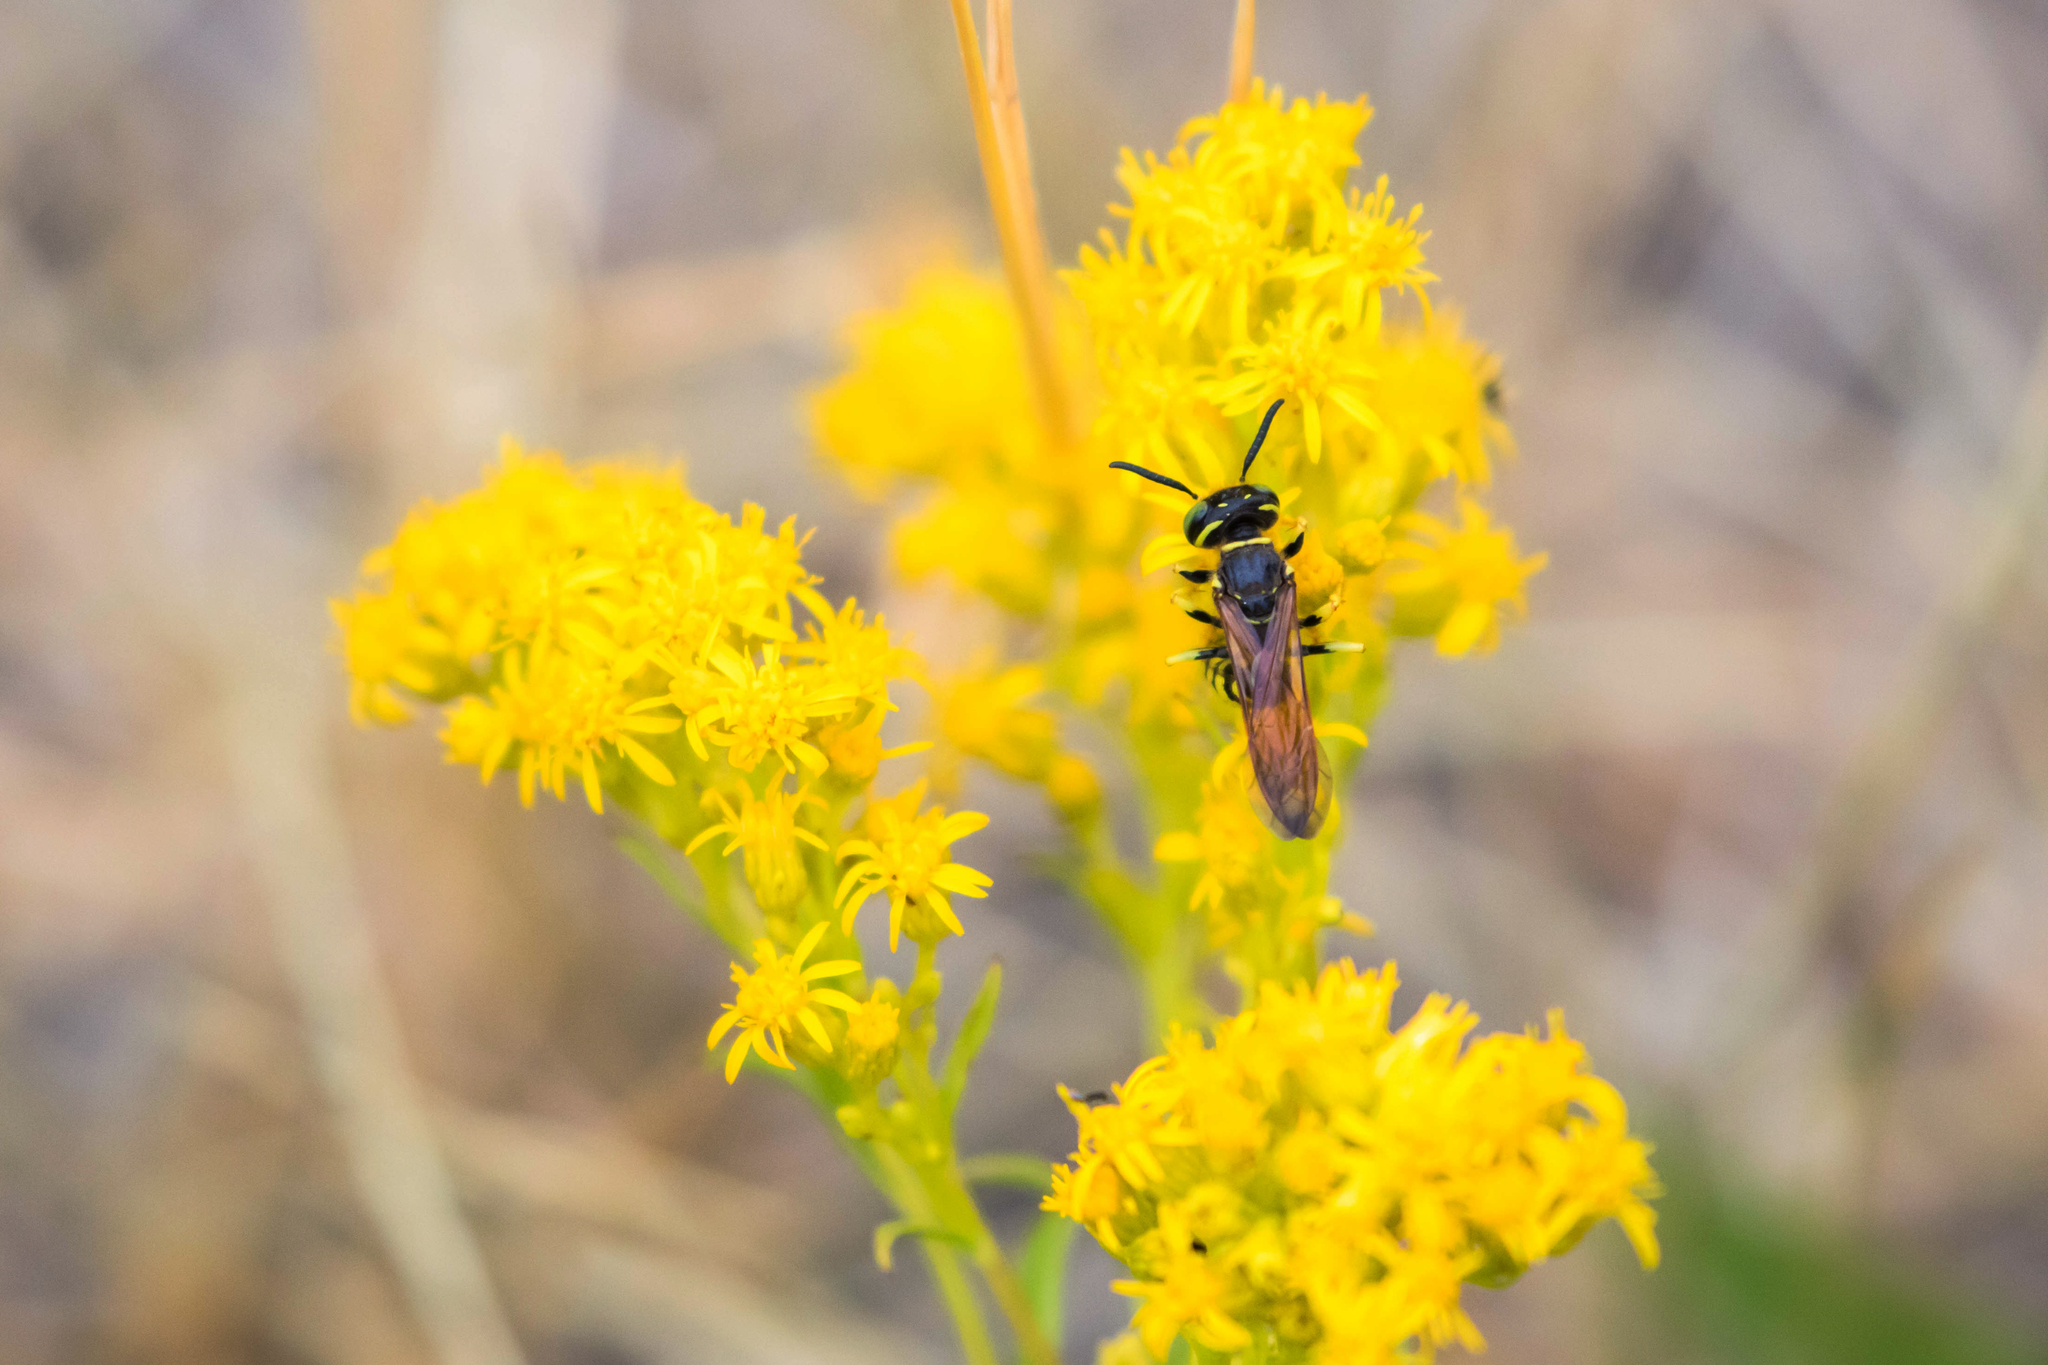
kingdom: Animalia
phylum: Arthropoda
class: Insecta
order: Hymenoptera
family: Crabronidae
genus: Philanthus
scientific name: Philanthus crabroniformis
